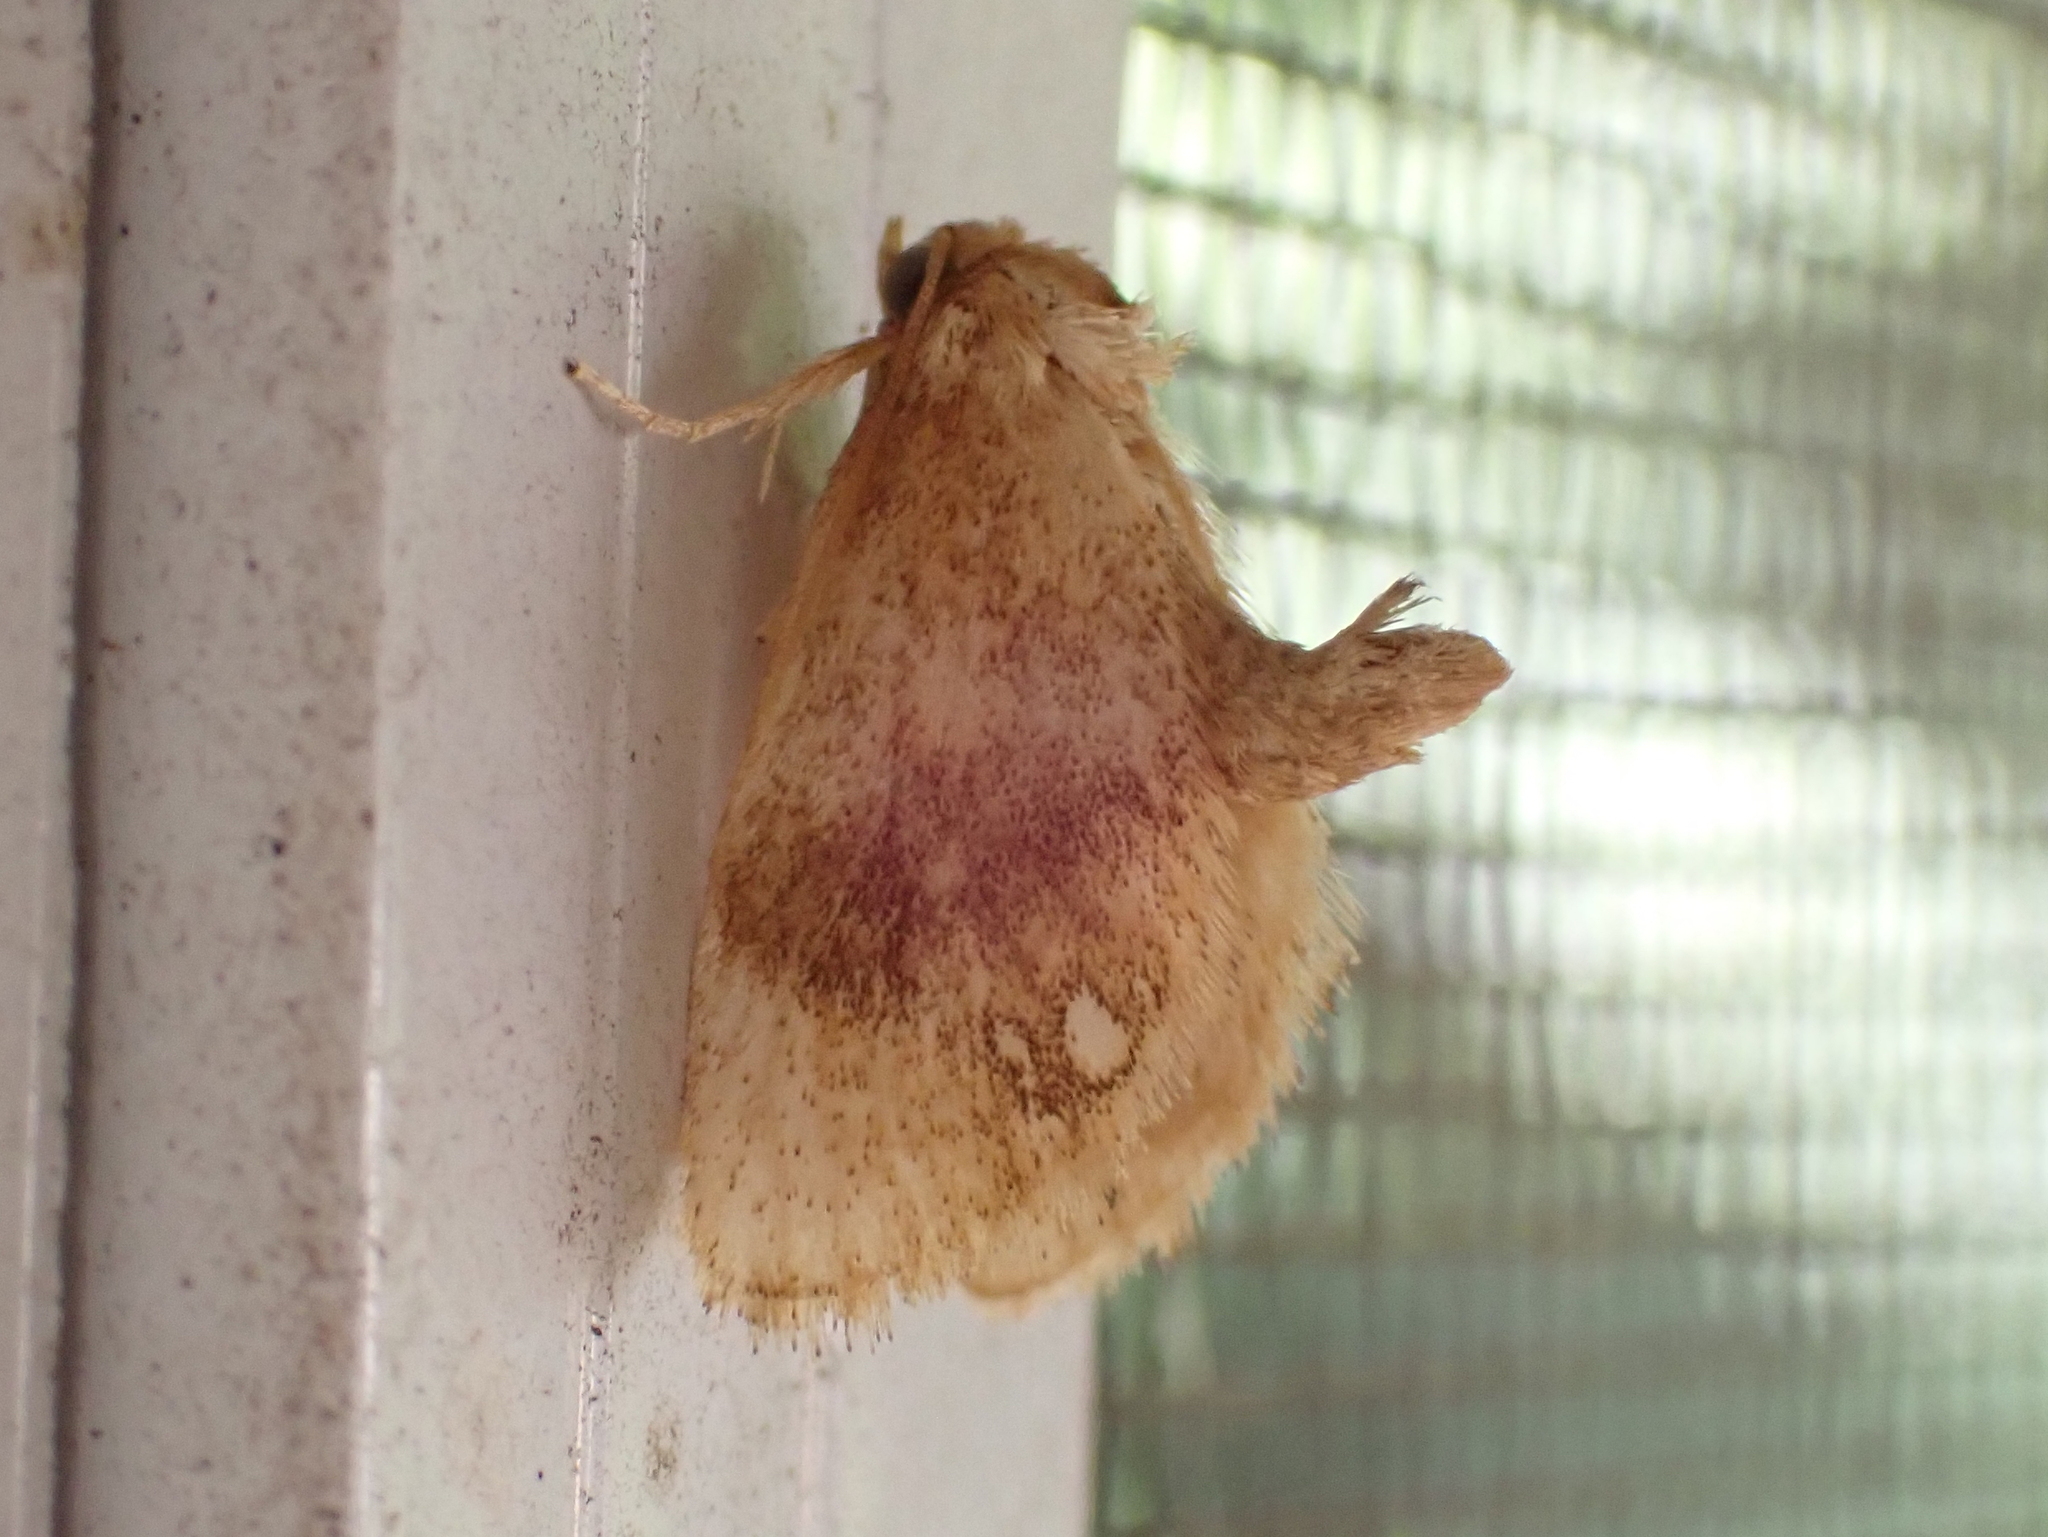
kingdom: Animalia
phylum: Arthropoda
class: Insecta
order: Lepidoptera
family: Limacodidae
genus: Packardia
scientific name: Packardia geminata
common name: Jeweled tailed slug moth
